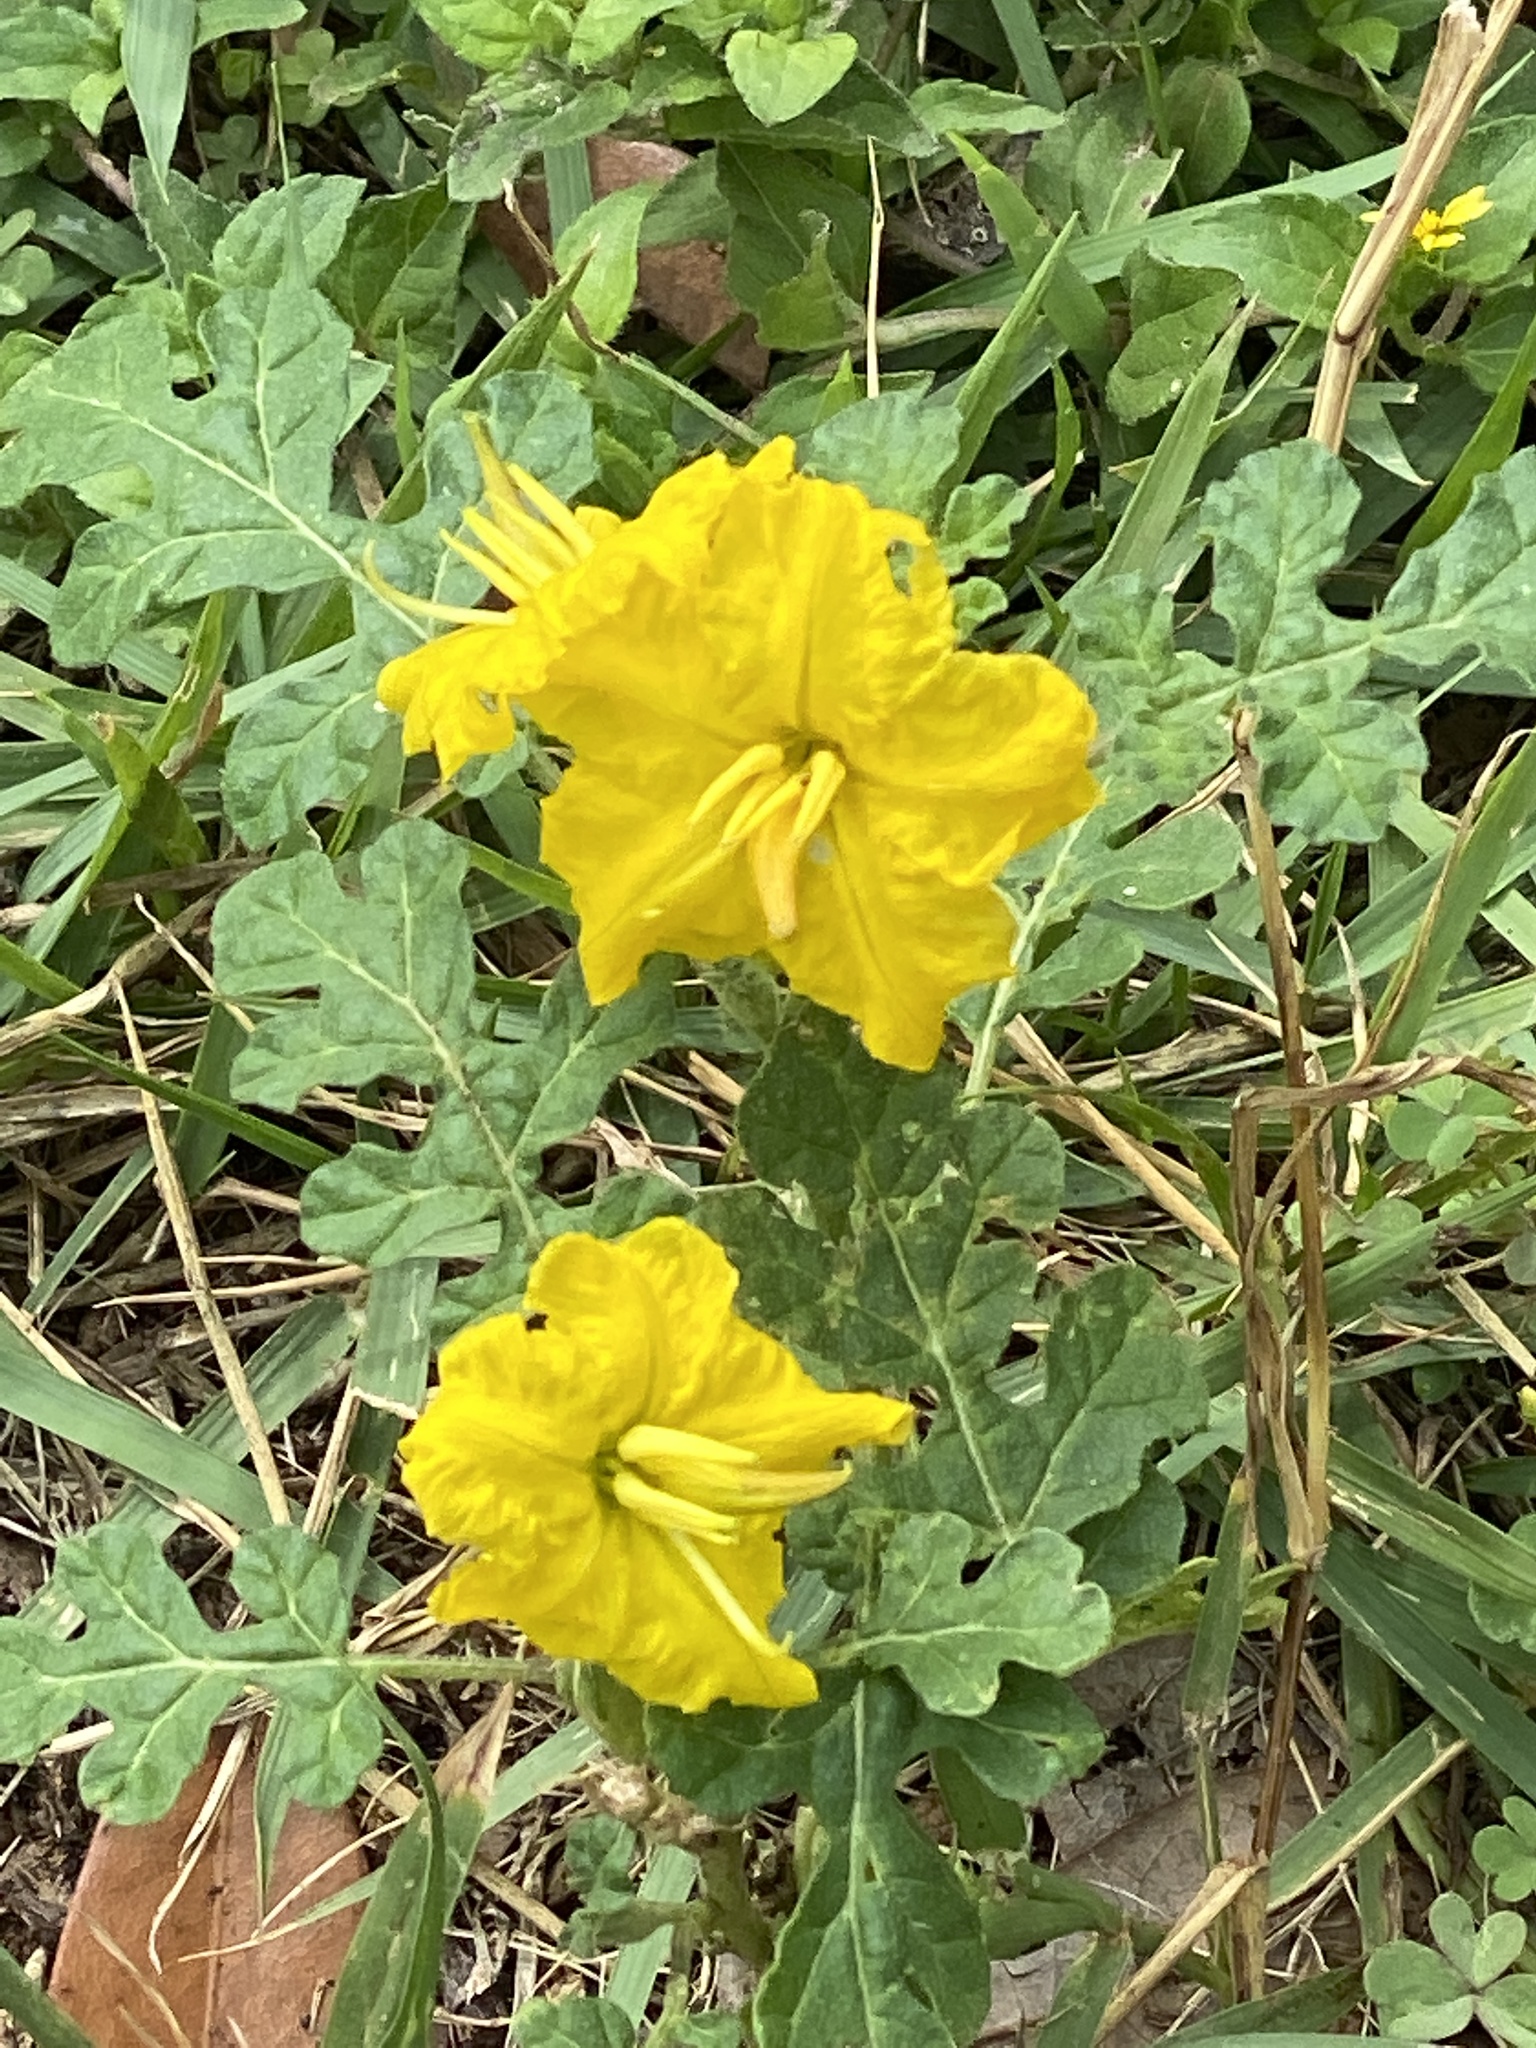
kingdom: Plantae
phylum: Tracheophyta
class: Magnoliopsida
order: Solanales
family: Solanaceae
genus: Solanum
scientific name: Solanum angustifolium
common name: Buffalobur nightshade
